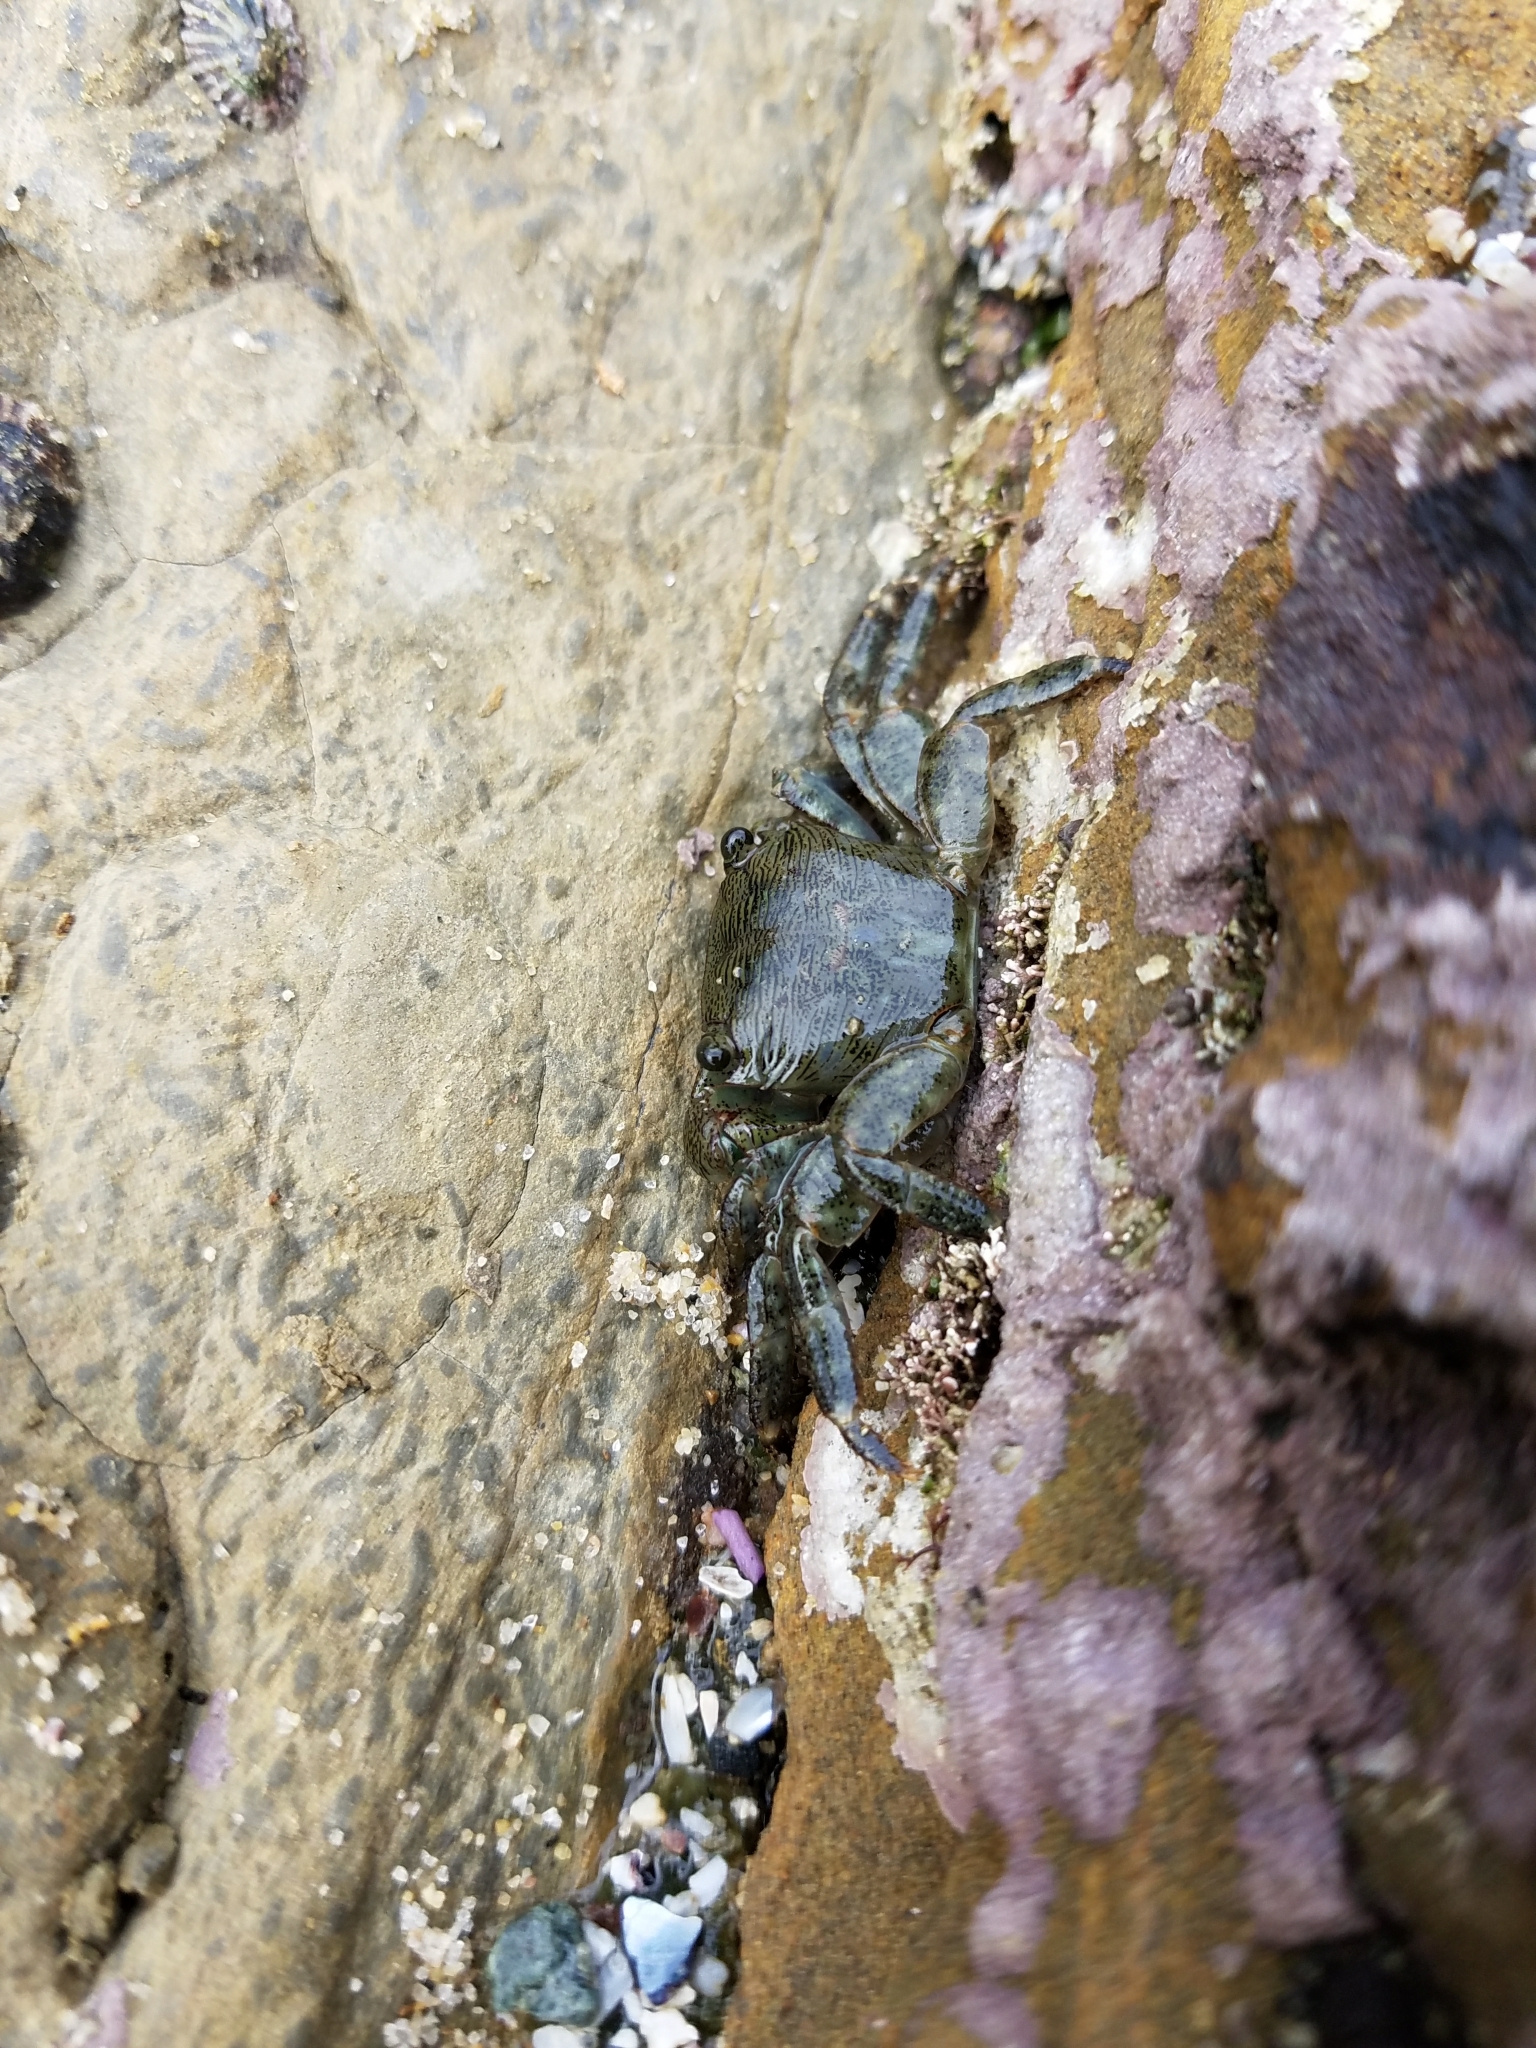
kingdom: Animalia
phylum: Arthropoda
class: Malacostraca
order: Decapoda
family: Grapsidae
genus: Pachygrapsus
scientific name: Pachygrapsus crassipes
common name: Striped shore crab
